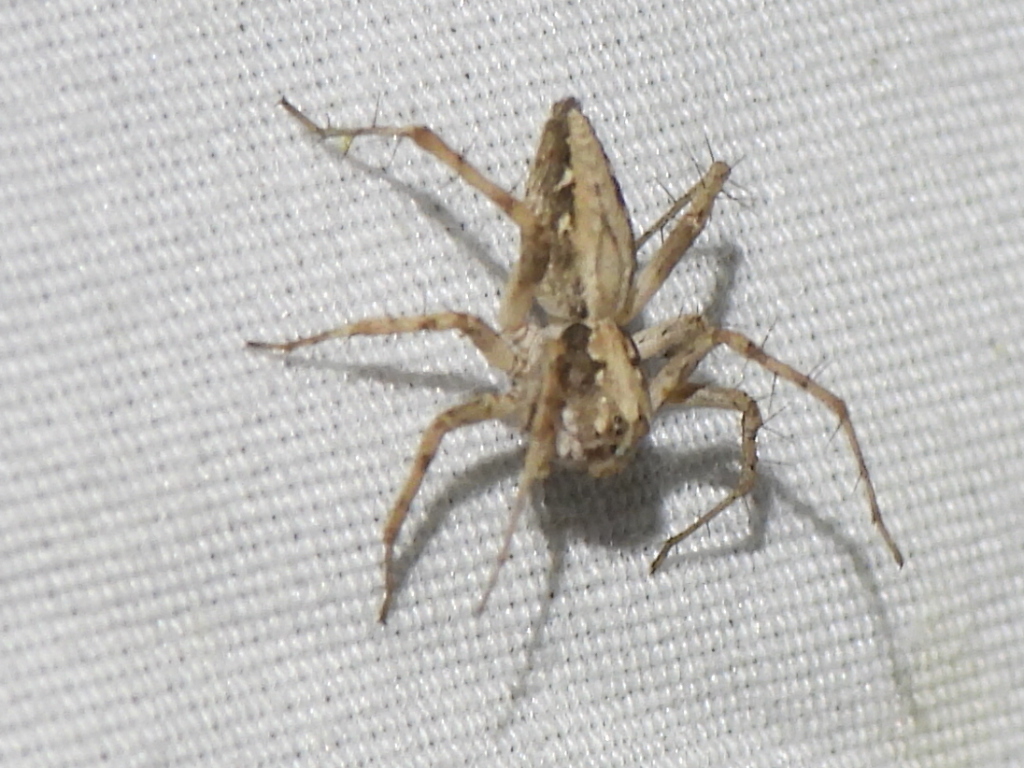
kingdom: Animalia
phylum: Arthropoda
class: Arachnida
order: Araneae
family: Oxyopidae
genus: Oxyopes
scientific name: Oxyopes scalaris
